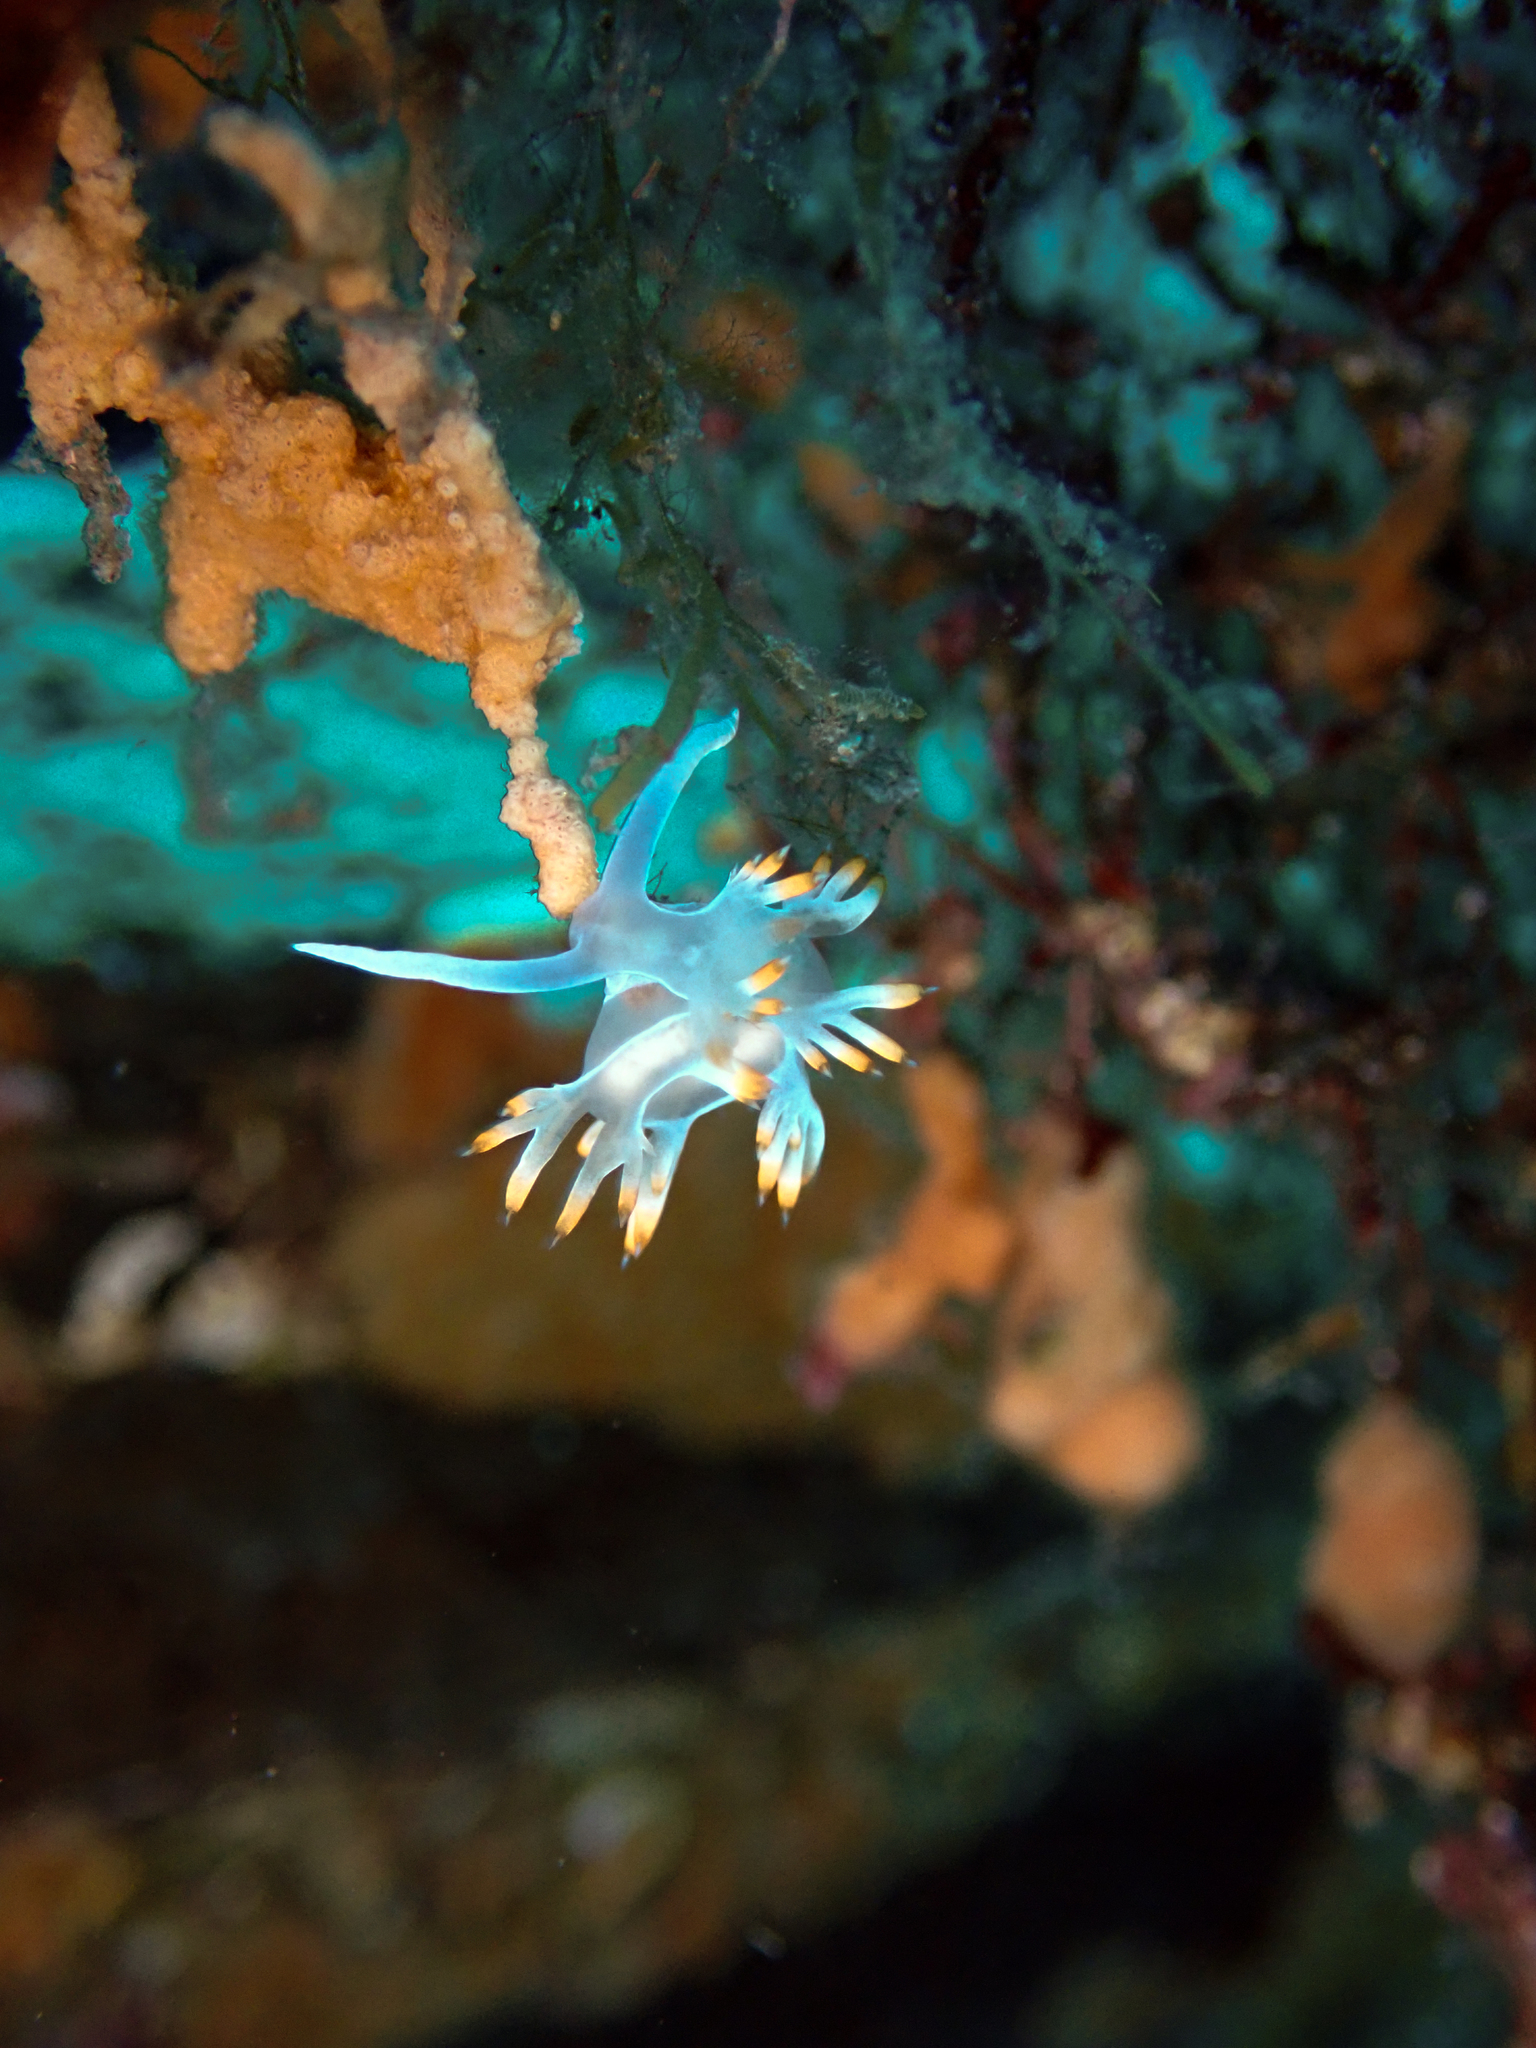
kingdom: Animalia
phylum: Mollusca
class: Gastropoda
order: Nudibranchia
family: Samlidae
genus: Luisella
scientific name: Luisella babai
